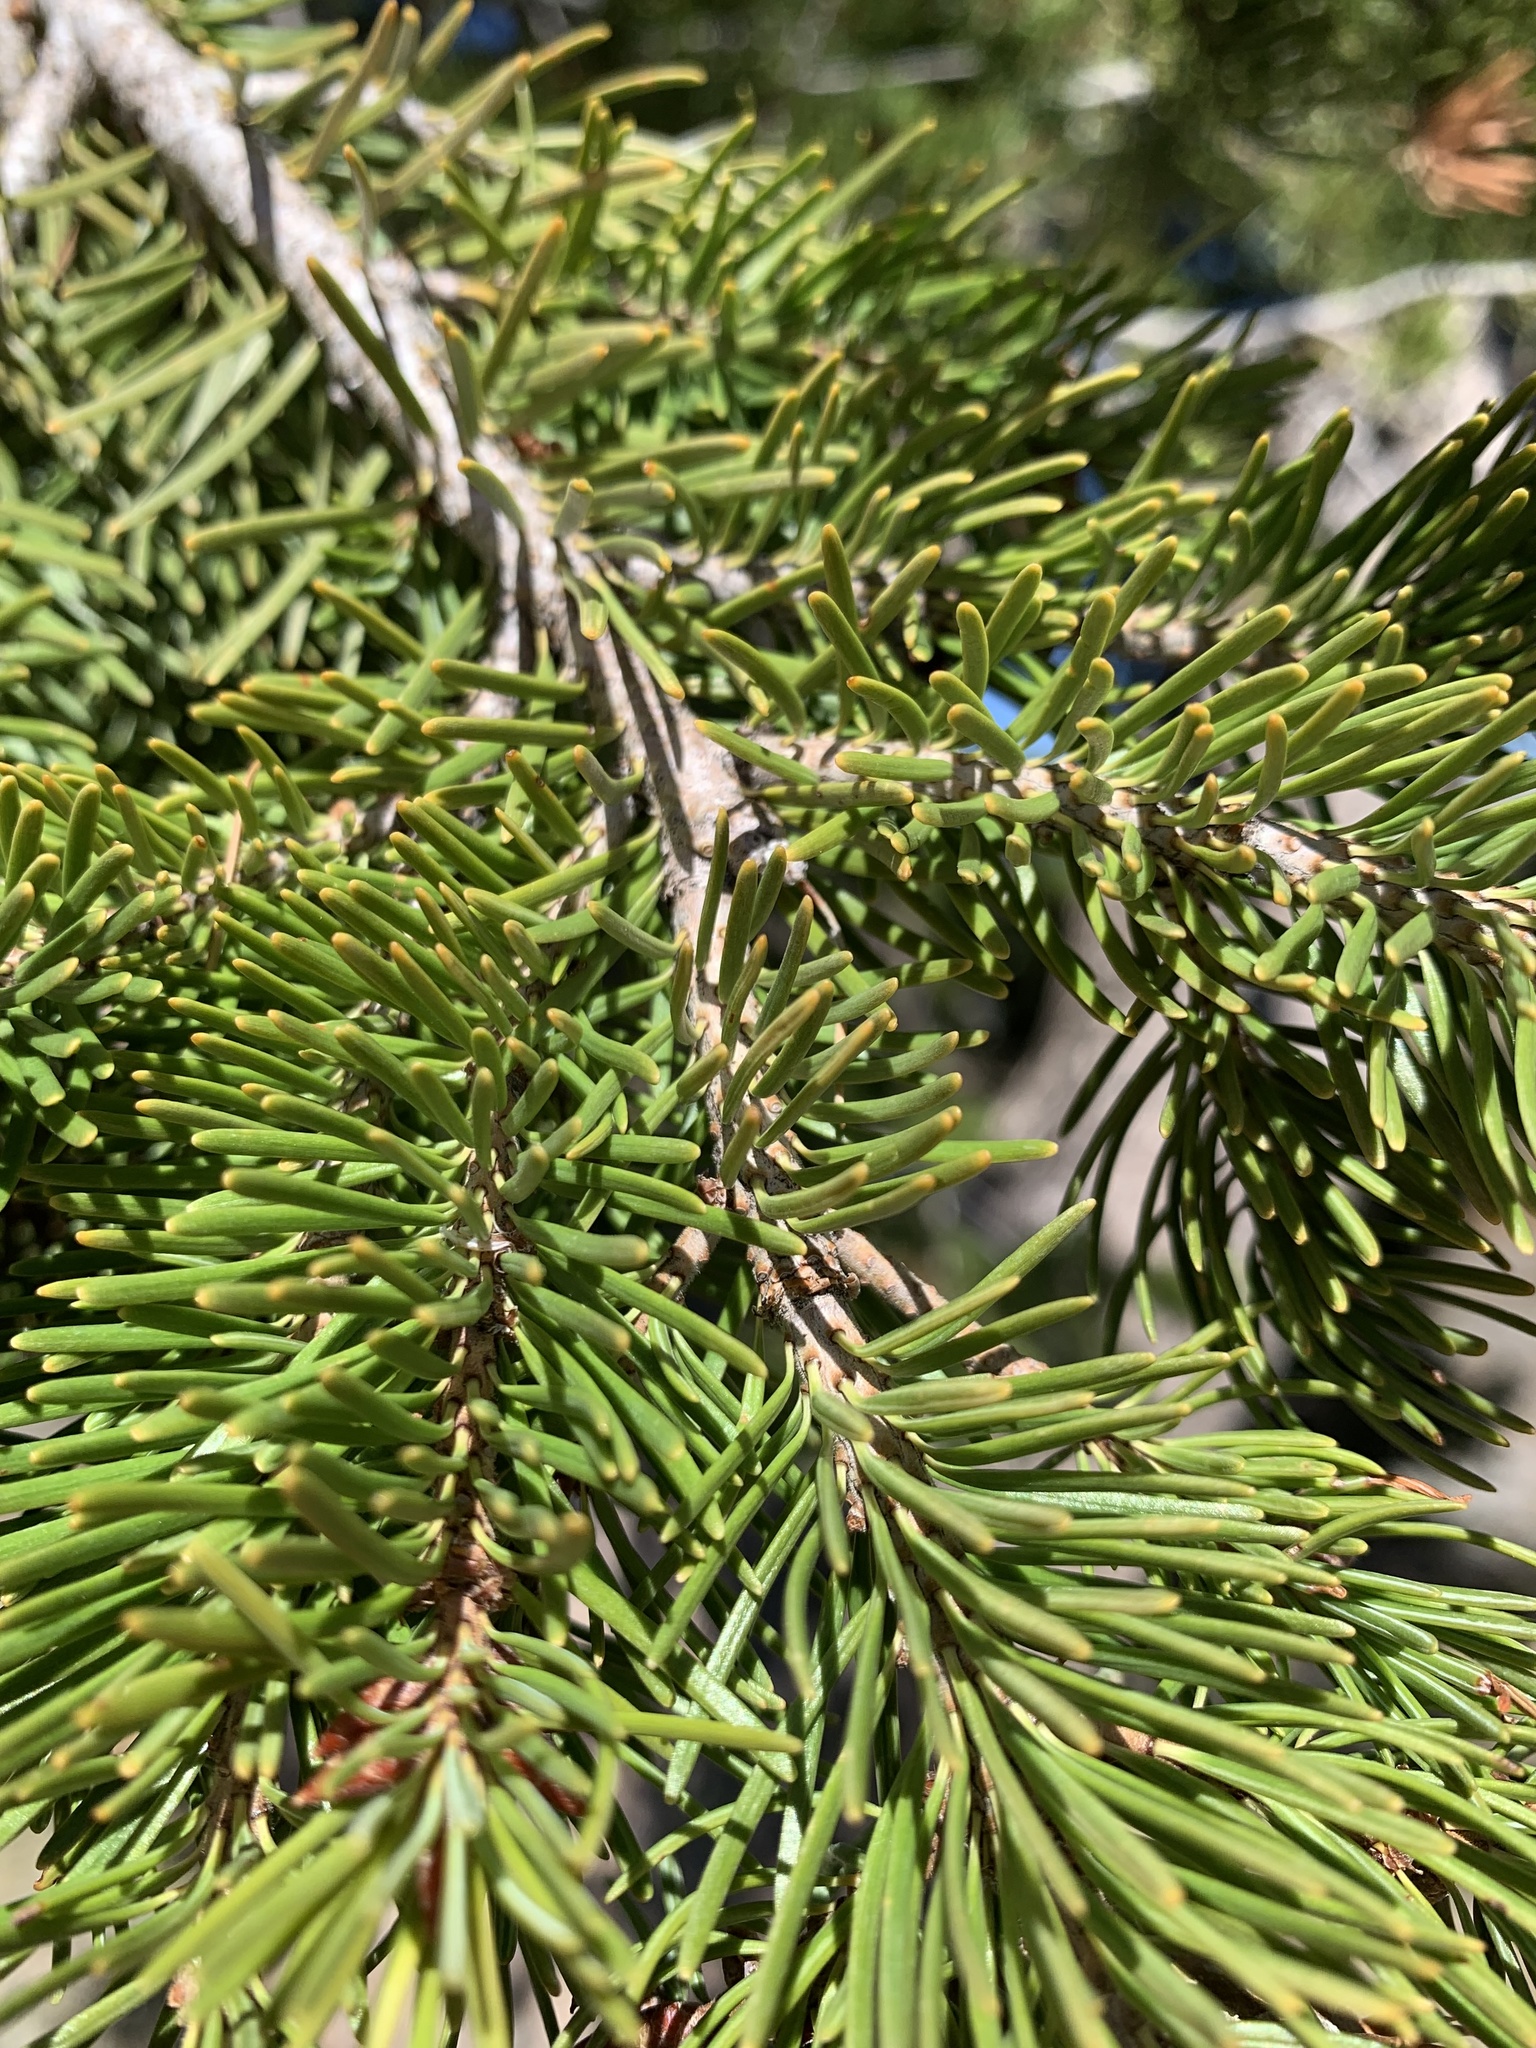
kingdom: Plantae
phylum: Tracheophyta
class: Pinopsida
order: Pinales
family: Pinaceae
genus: Pseudotsuga
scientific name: Pseudotsuga menziesii
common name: Douglas fir
